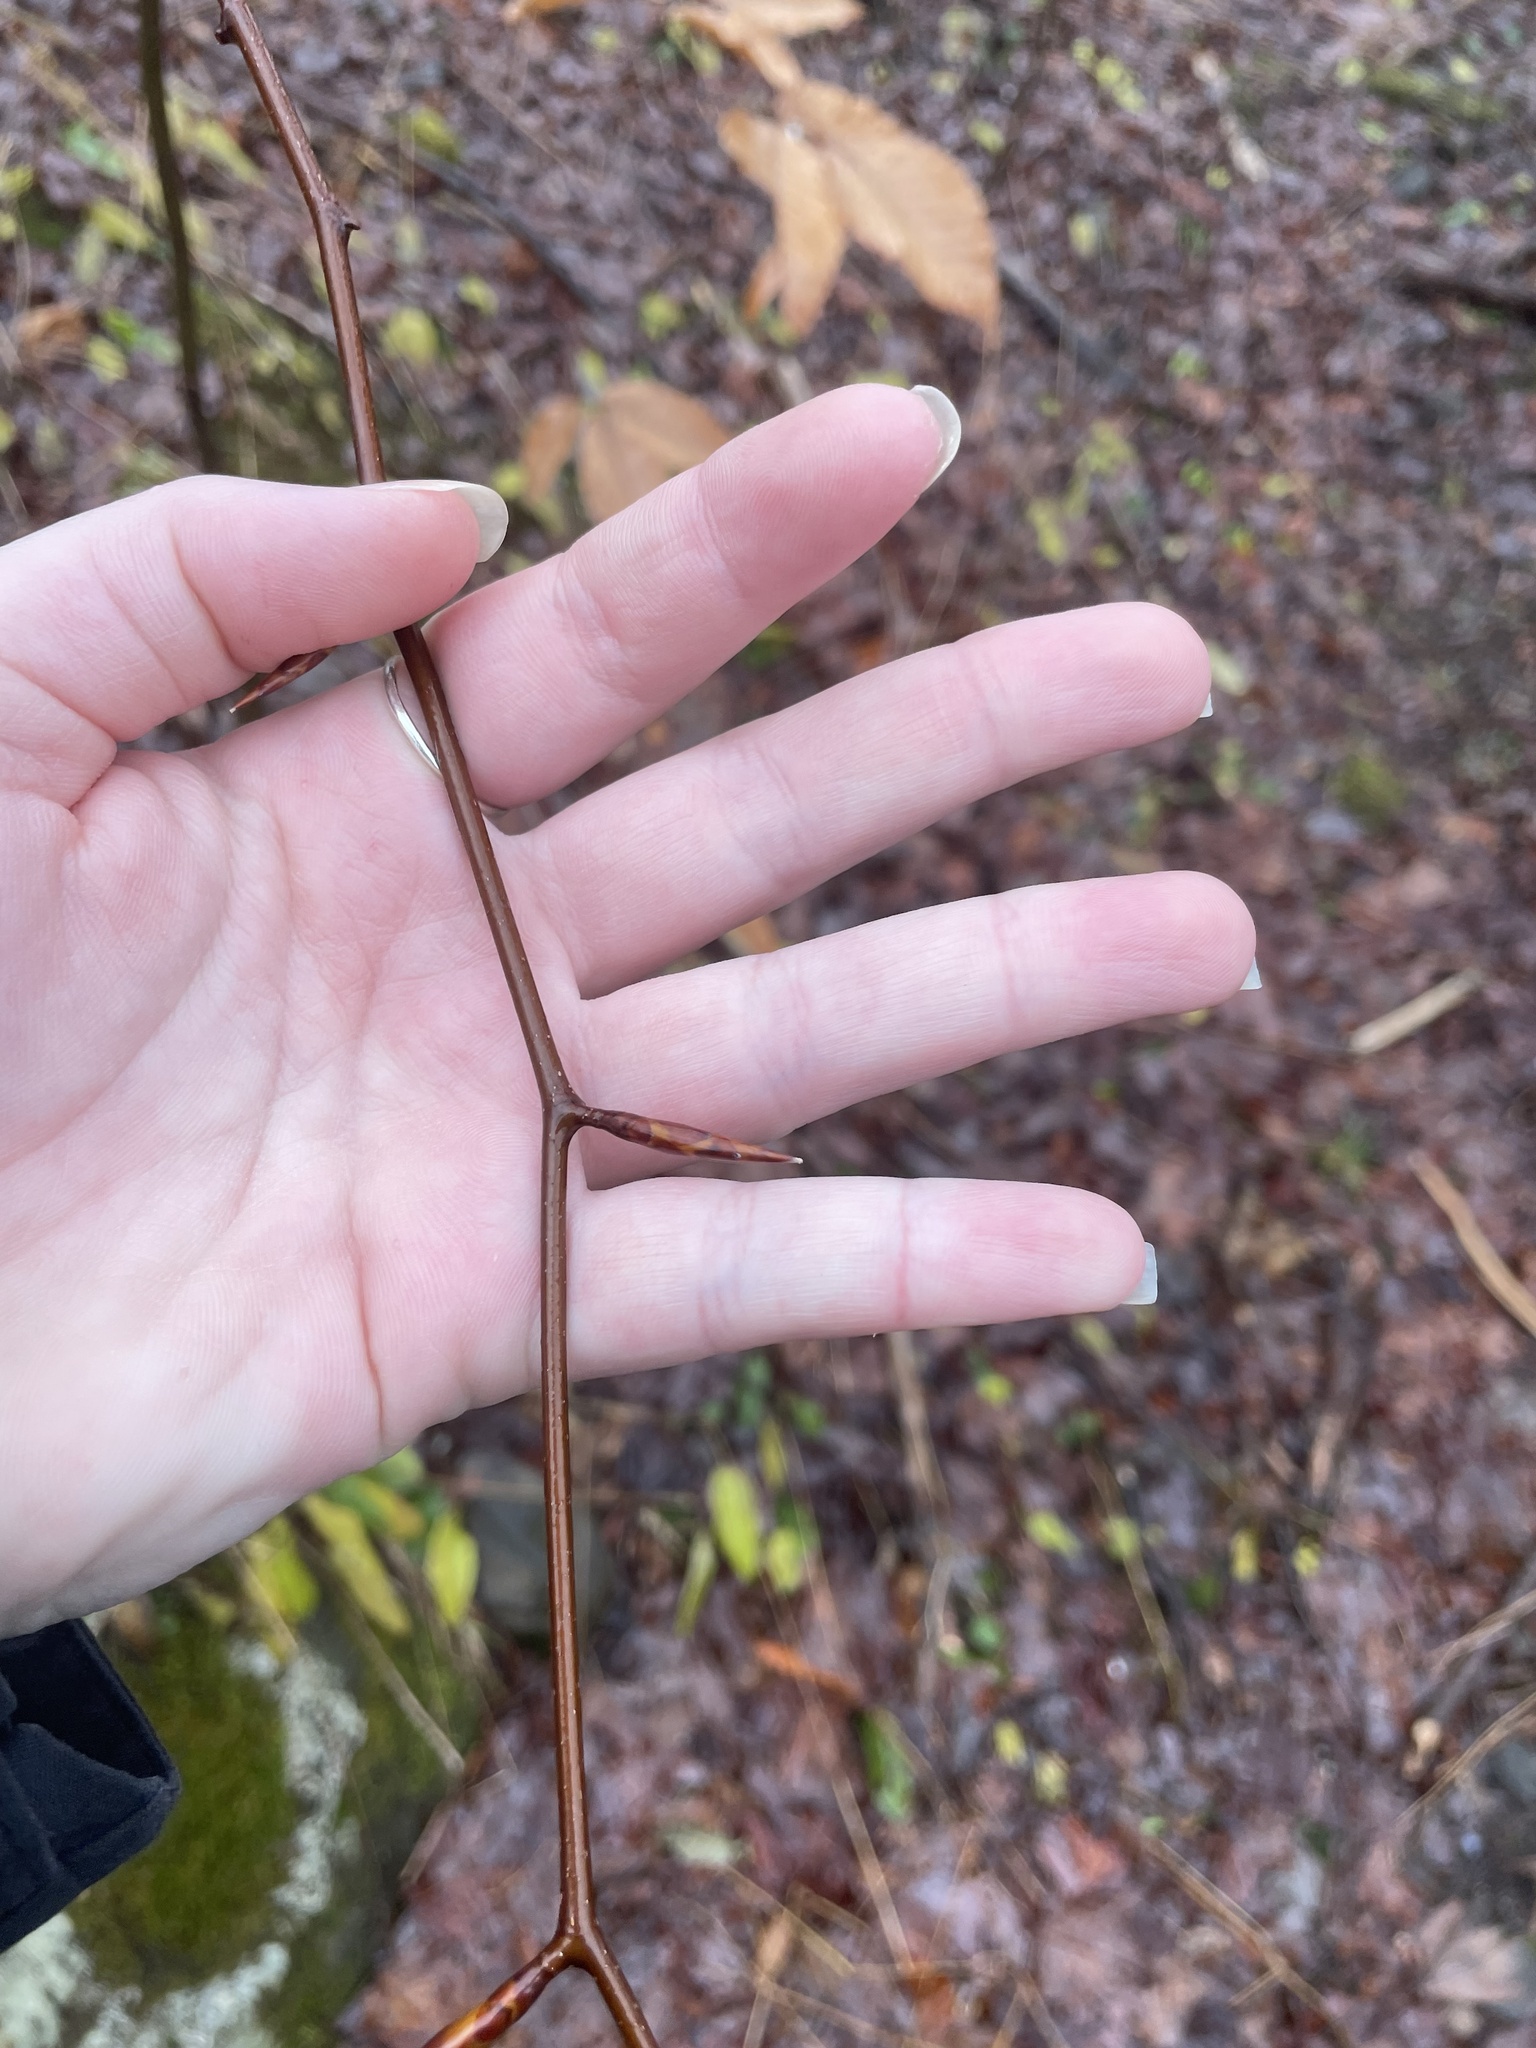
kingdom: Plantae
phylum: Tracheophyta
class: Magnoliopsida
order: Fagales
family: Fagaceae
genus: Fagus
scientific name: Fagus grandifolia
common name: American beech
